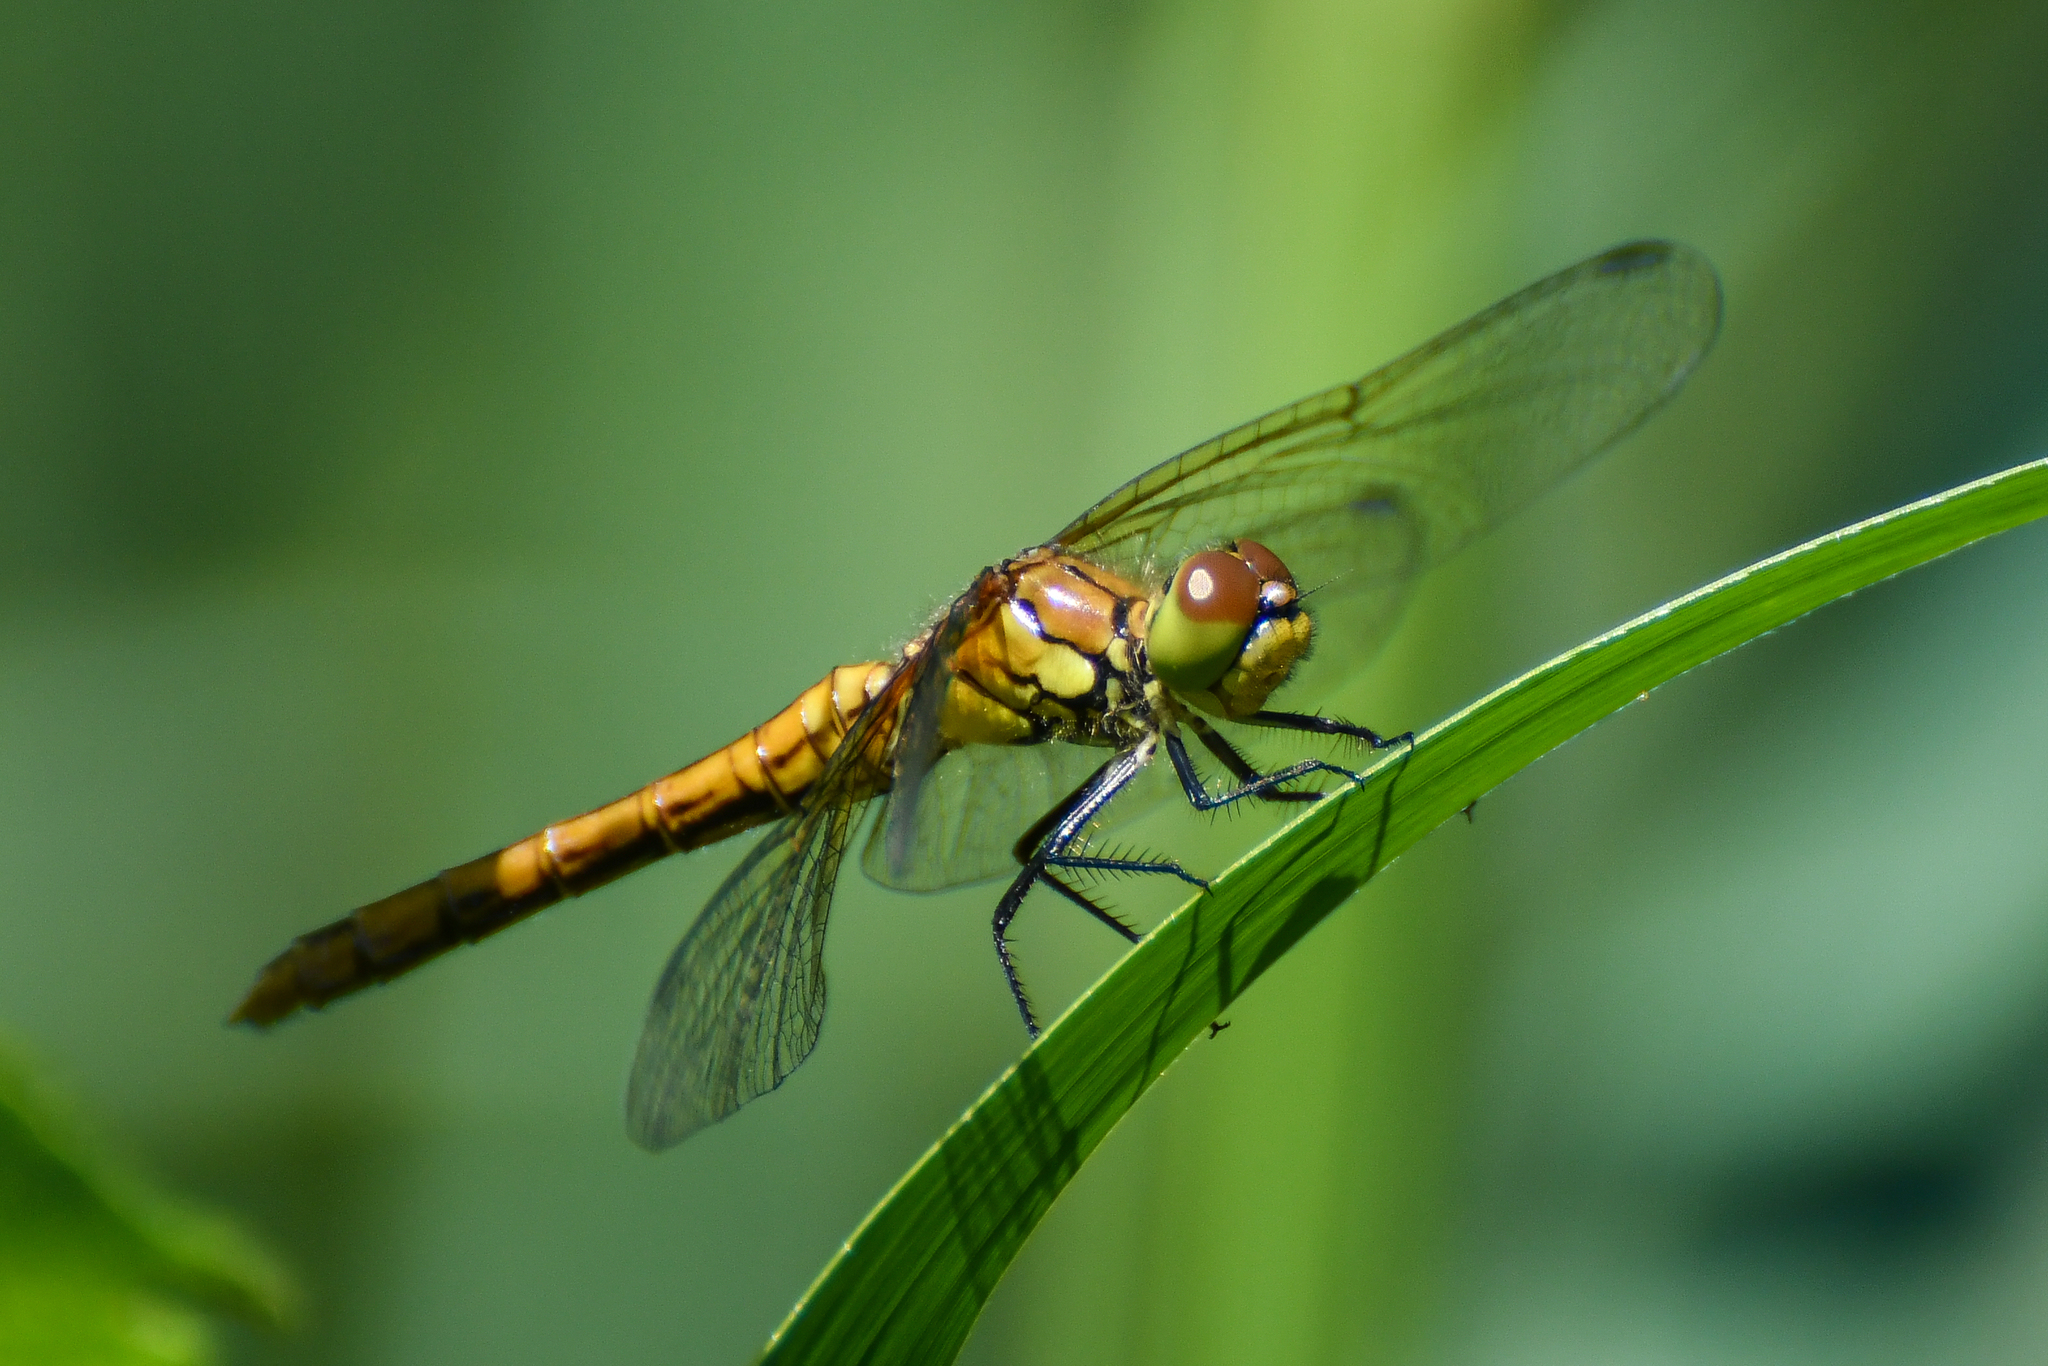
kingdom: Animalia
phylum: Arthropoda
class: Insecta
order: Odonata
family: Libellulidae
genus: Sympetrum
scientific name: Sympetrum sanguineum
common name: Ruddy darter
